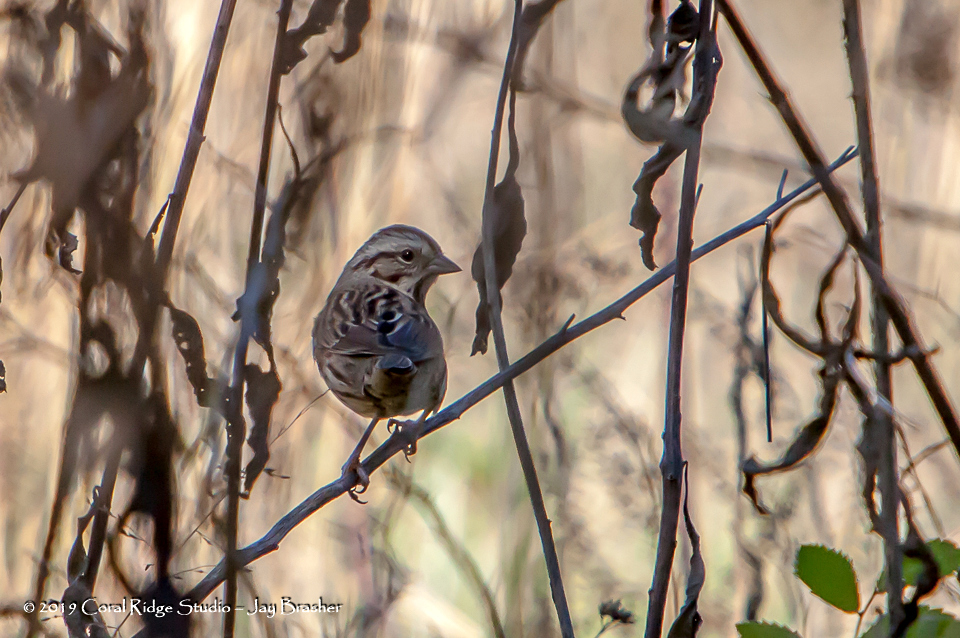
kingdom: Animalia
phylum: Chordata
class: Aves
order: Passeriformes
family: Passerellidae
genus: Melospiza
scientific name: Melospiza melodia
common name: Song sparrow
